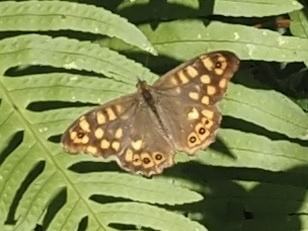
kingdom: Animalia
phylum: Arthropoda
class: Insecta
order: Lepidoptera
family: Nymphalidae
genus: Pararge
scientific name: Pararge aegeria
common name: Speckled wood
